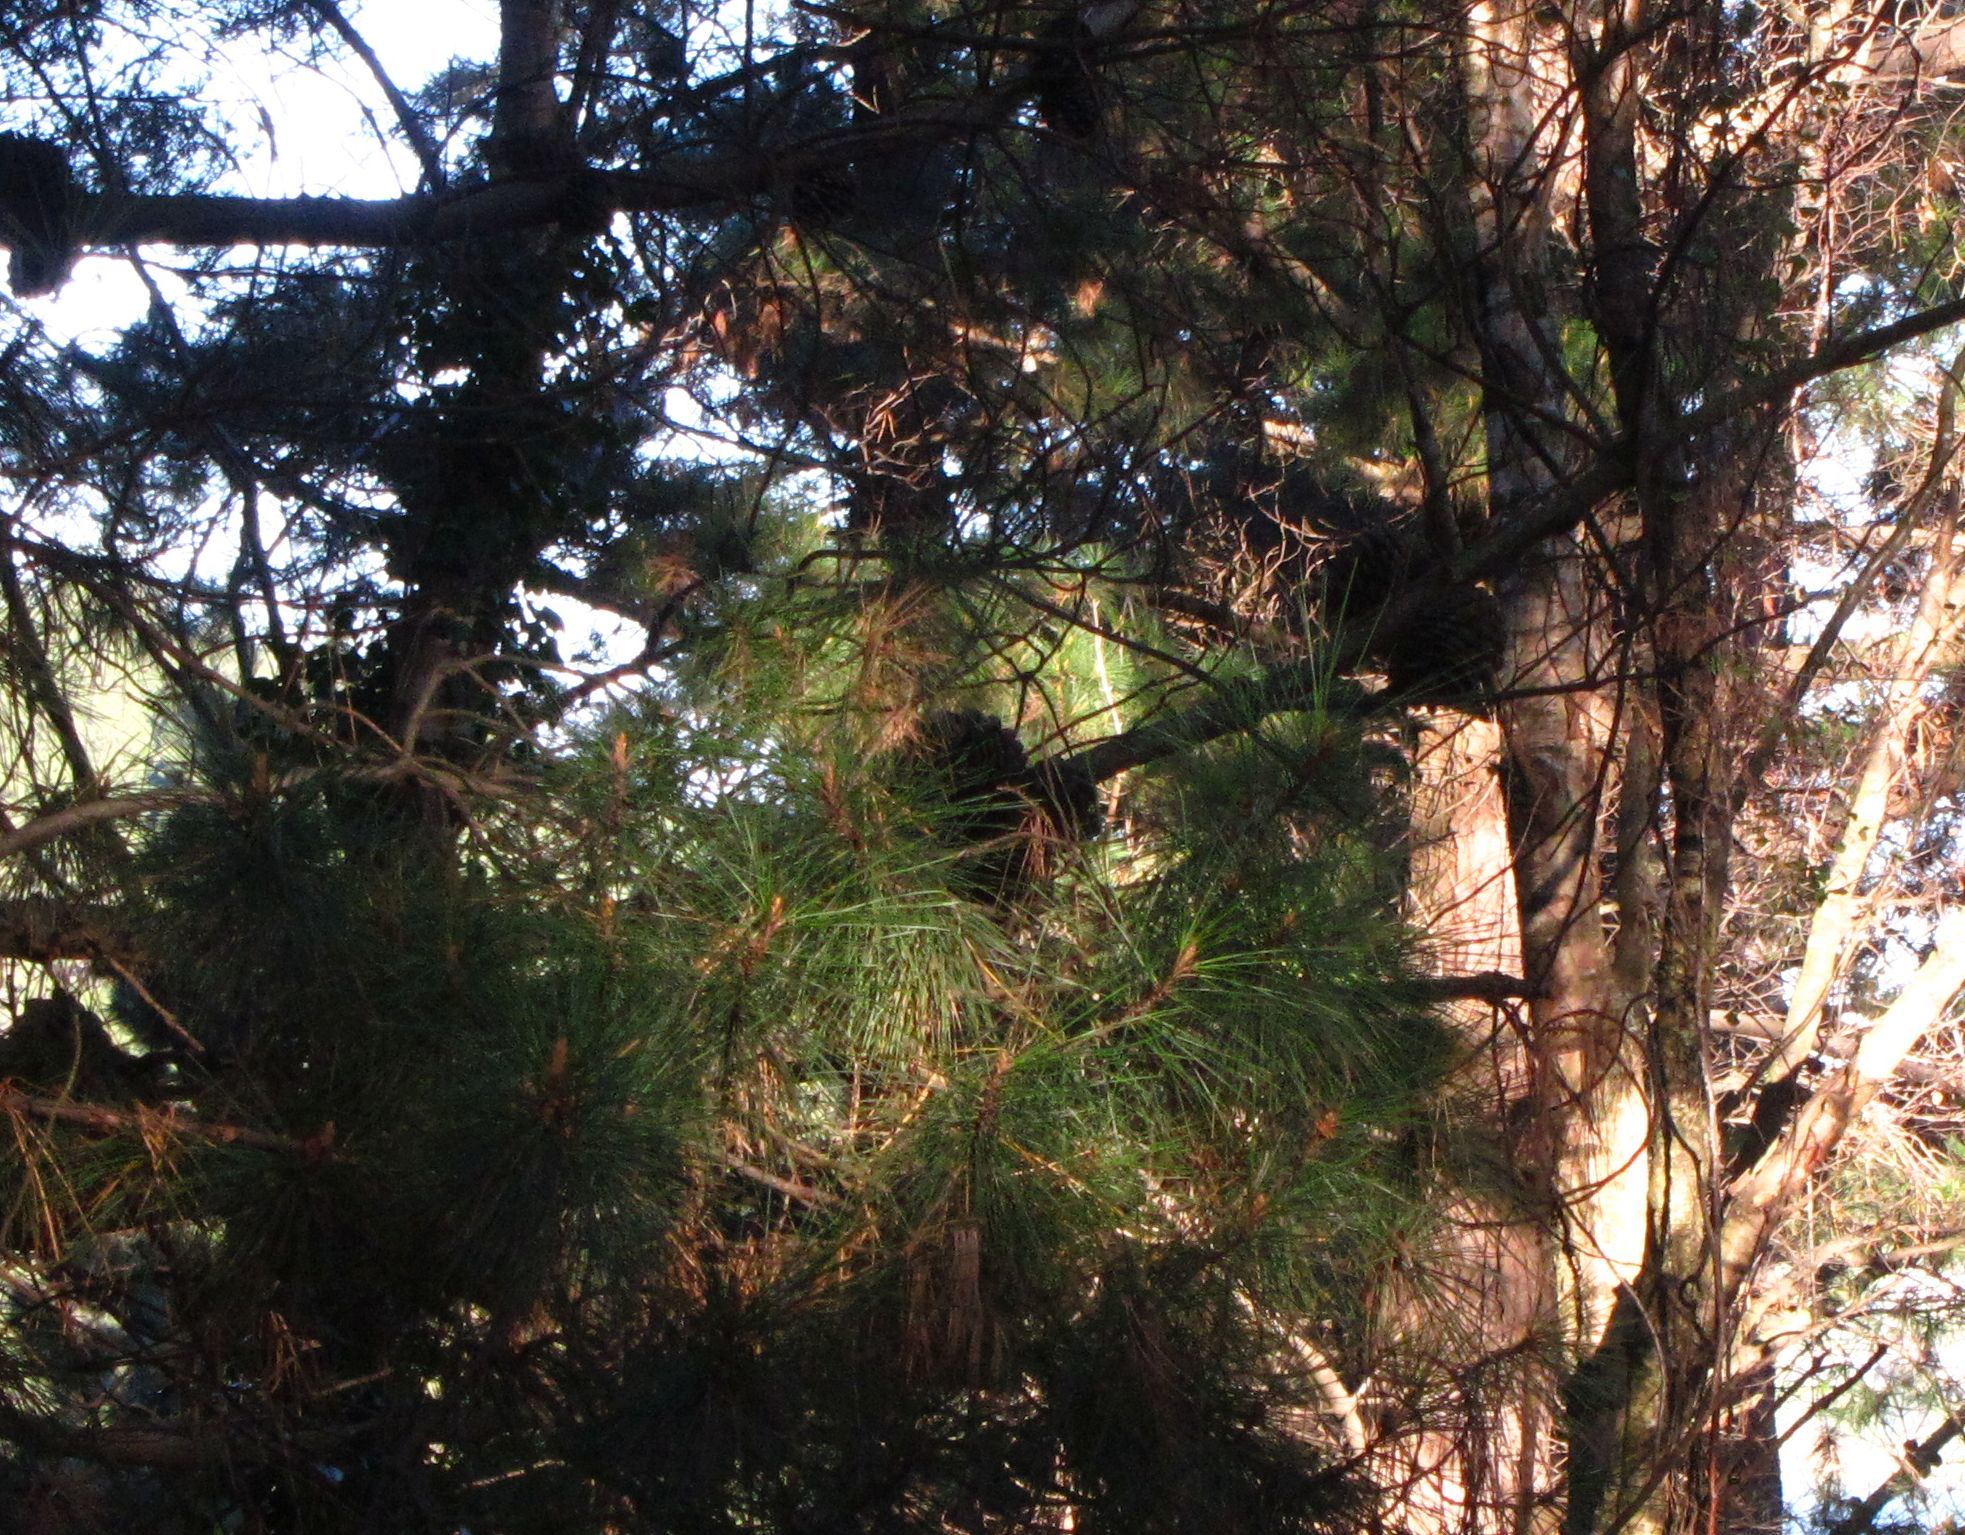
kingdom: Plantae
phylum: Tracheophyta
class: Pinopsida
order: Pinales
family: Pinaceae
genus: Pinus
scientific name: Pinus radiata
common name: Monterey pine
